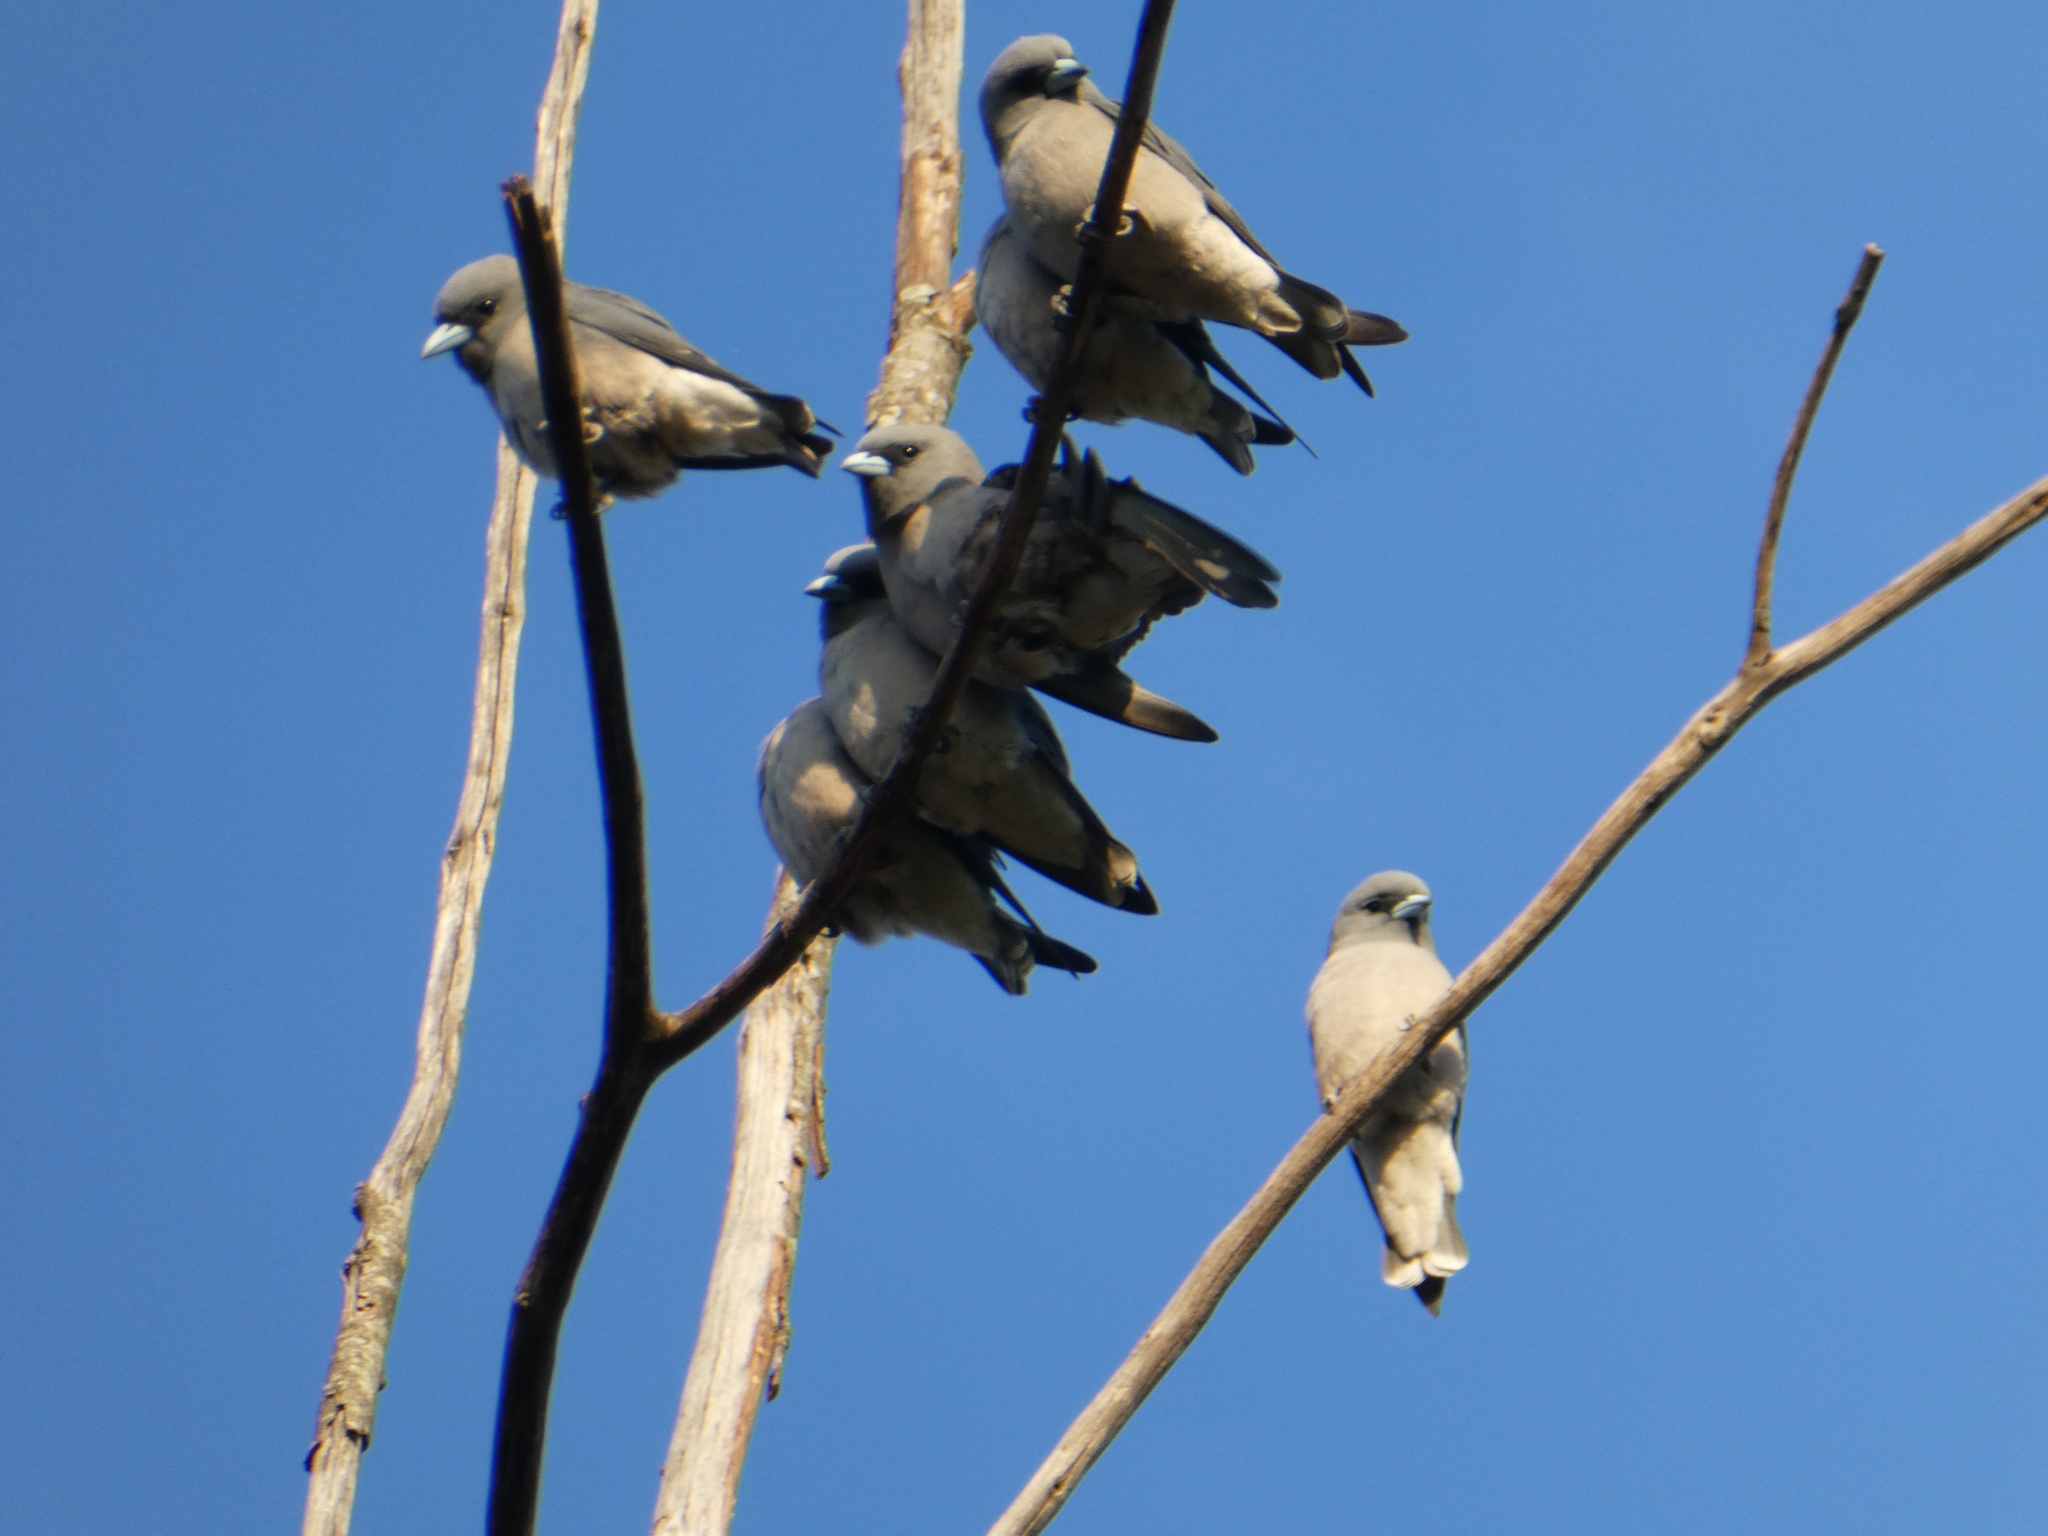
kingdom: Animalia
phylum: Chordata
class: Aves
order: Passeriformes
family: Artamidae
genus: Artamus
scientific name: Artamus fuscus
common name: Ashy woodswallow
